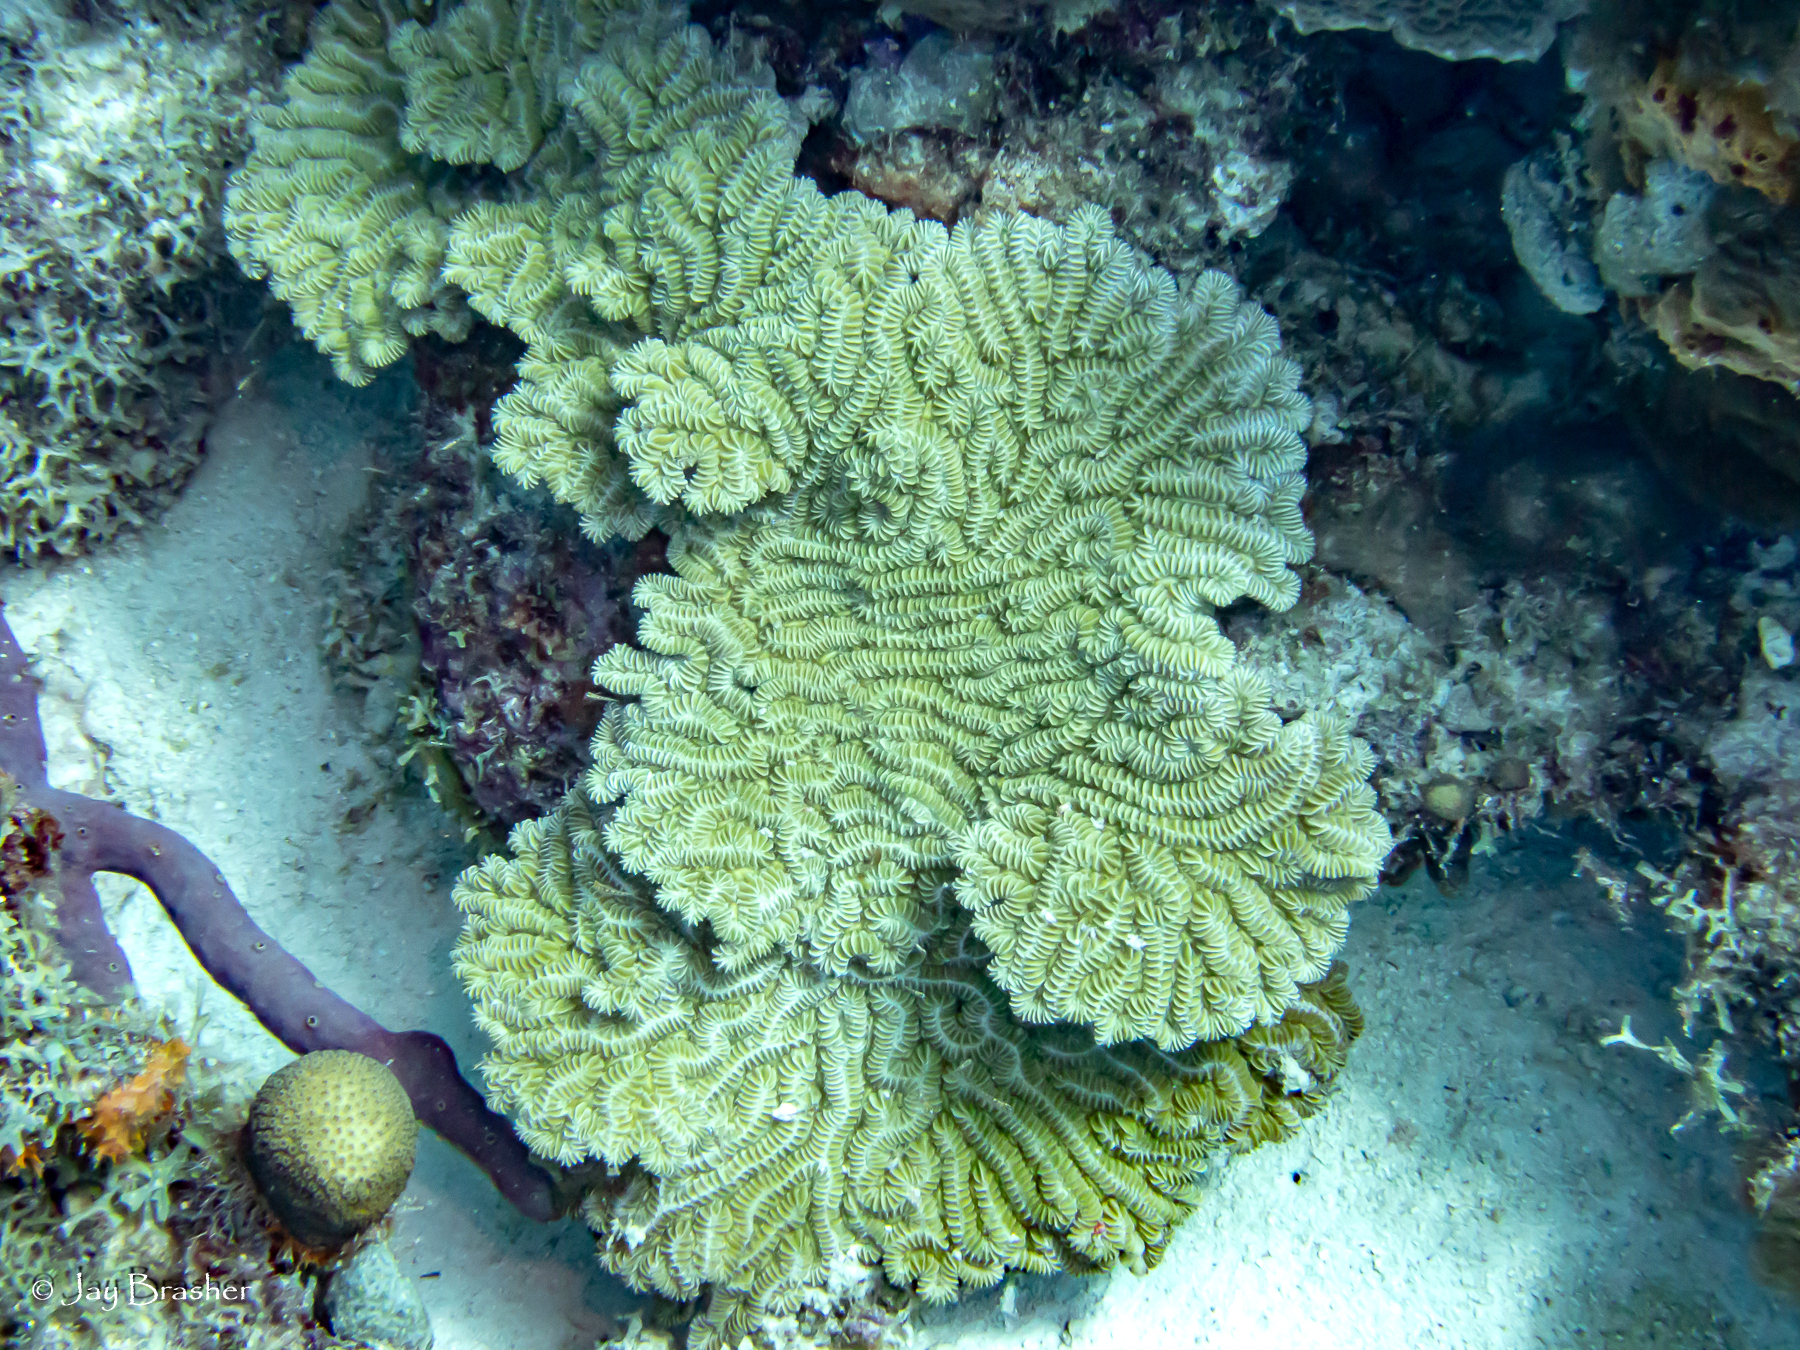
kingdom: Animalia
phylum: Cnidaria
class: Anthozoa
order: Scleractinia
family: Meandrinidae
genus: Meandrina
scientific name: Meandrina meandrites
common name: Maze coral
